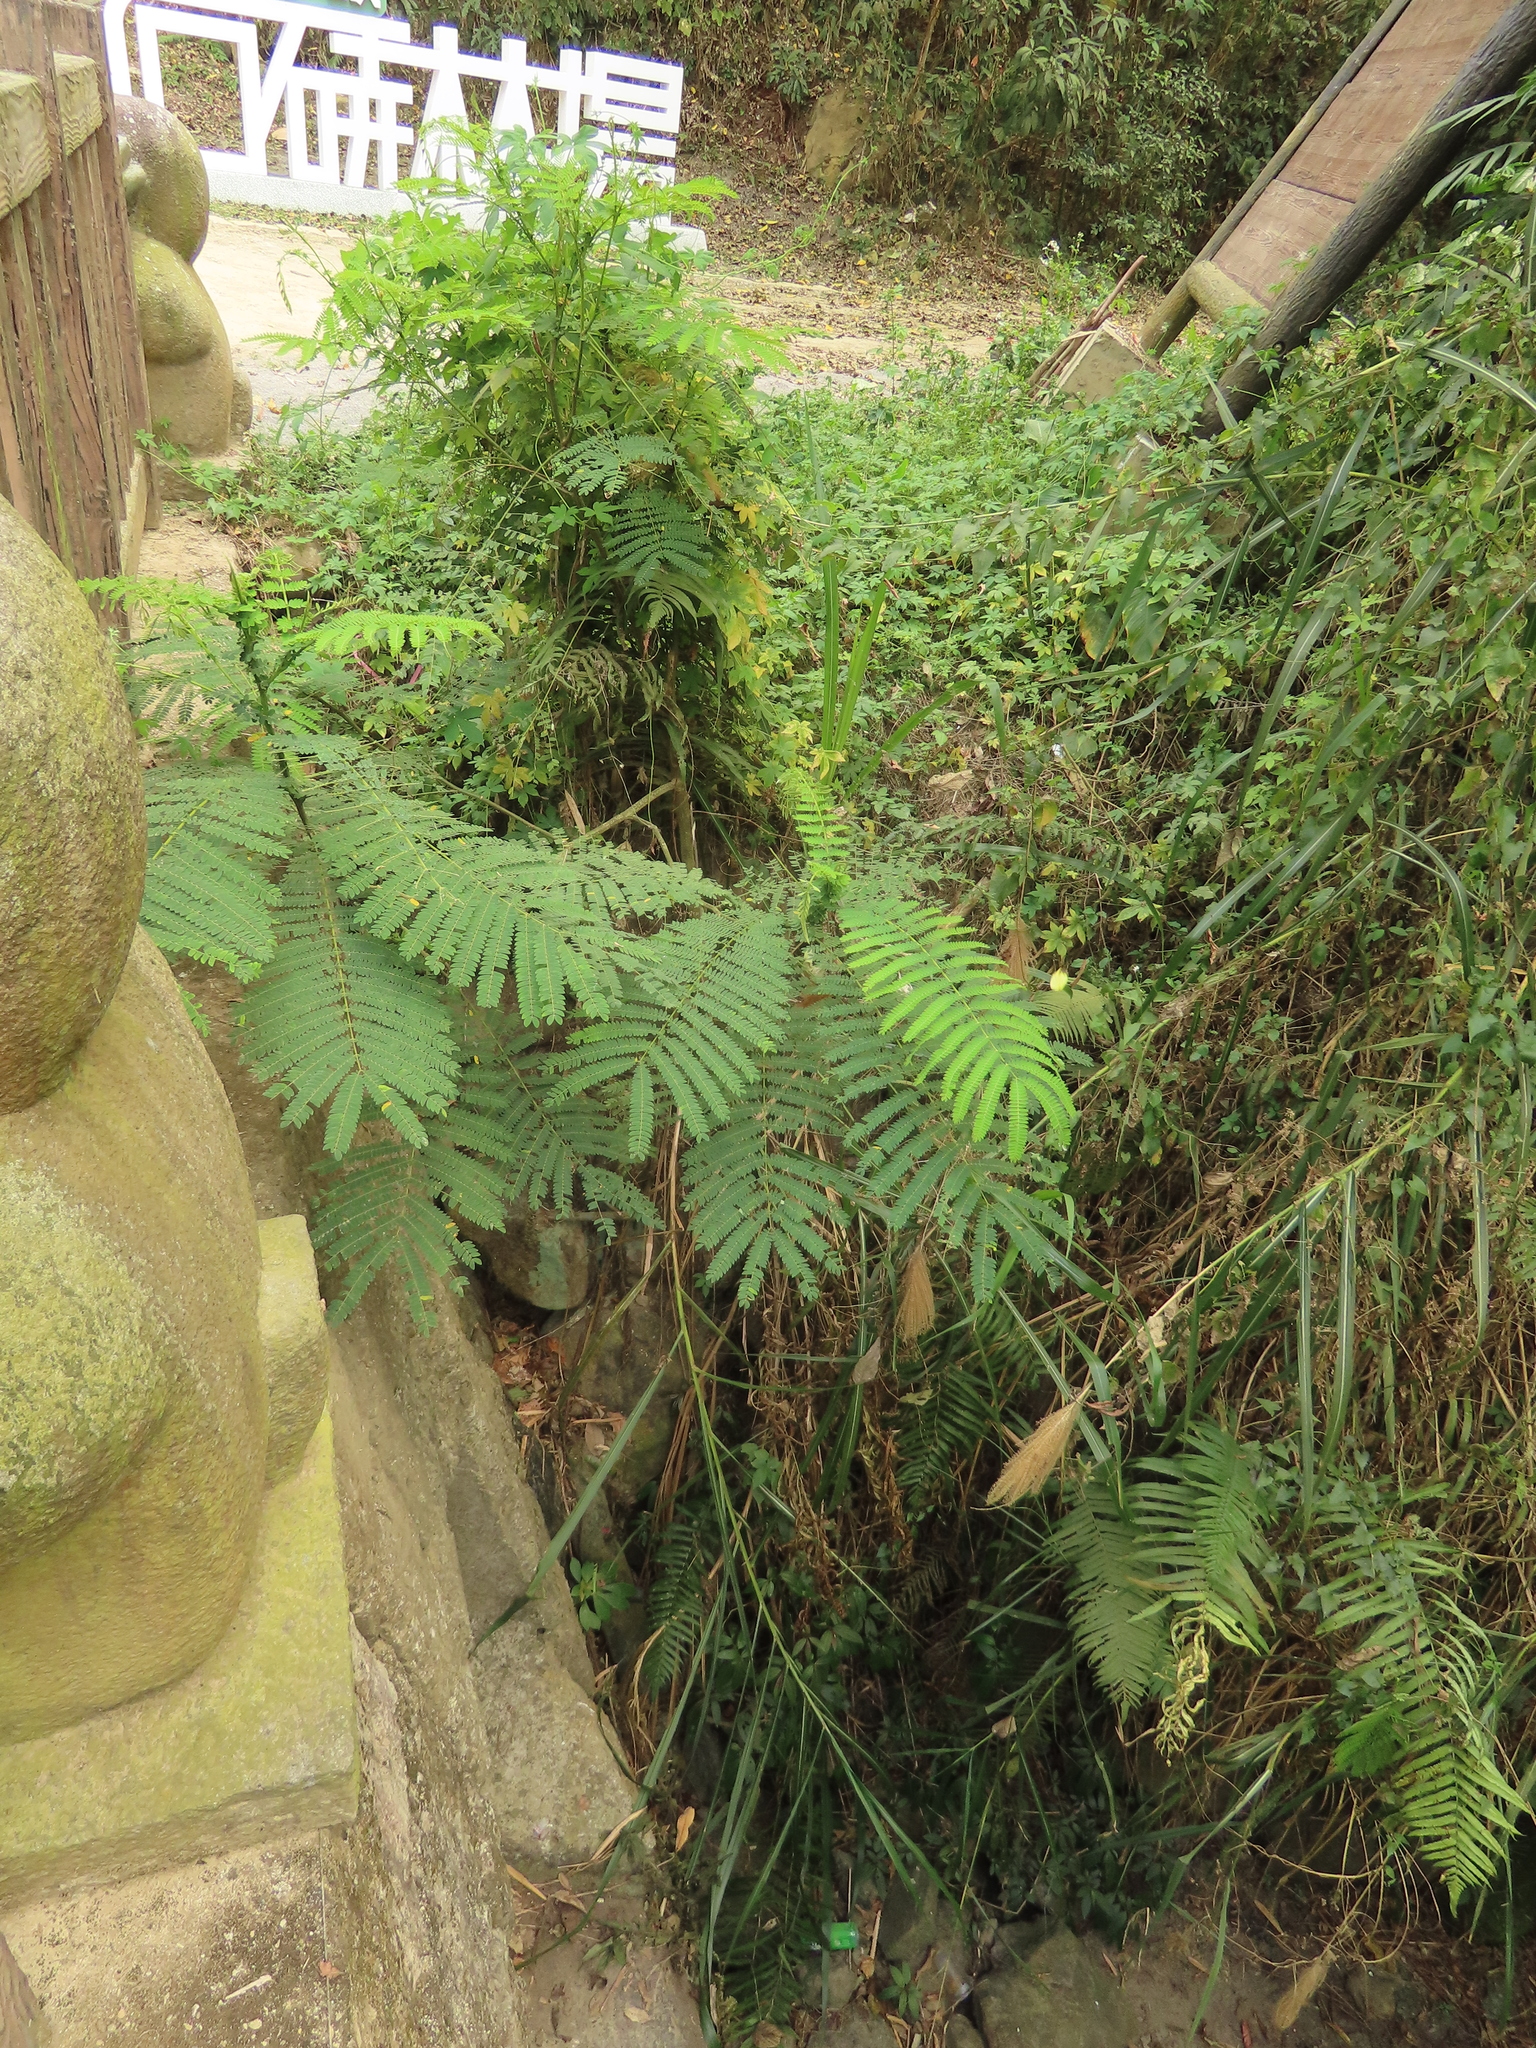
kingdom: Plantae
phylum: Tracheophyta
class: Magnoliopsida
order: Fabales
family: Fabaceae
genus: Leucaena
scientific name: Leucaena leucocephala
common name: White leadtree
